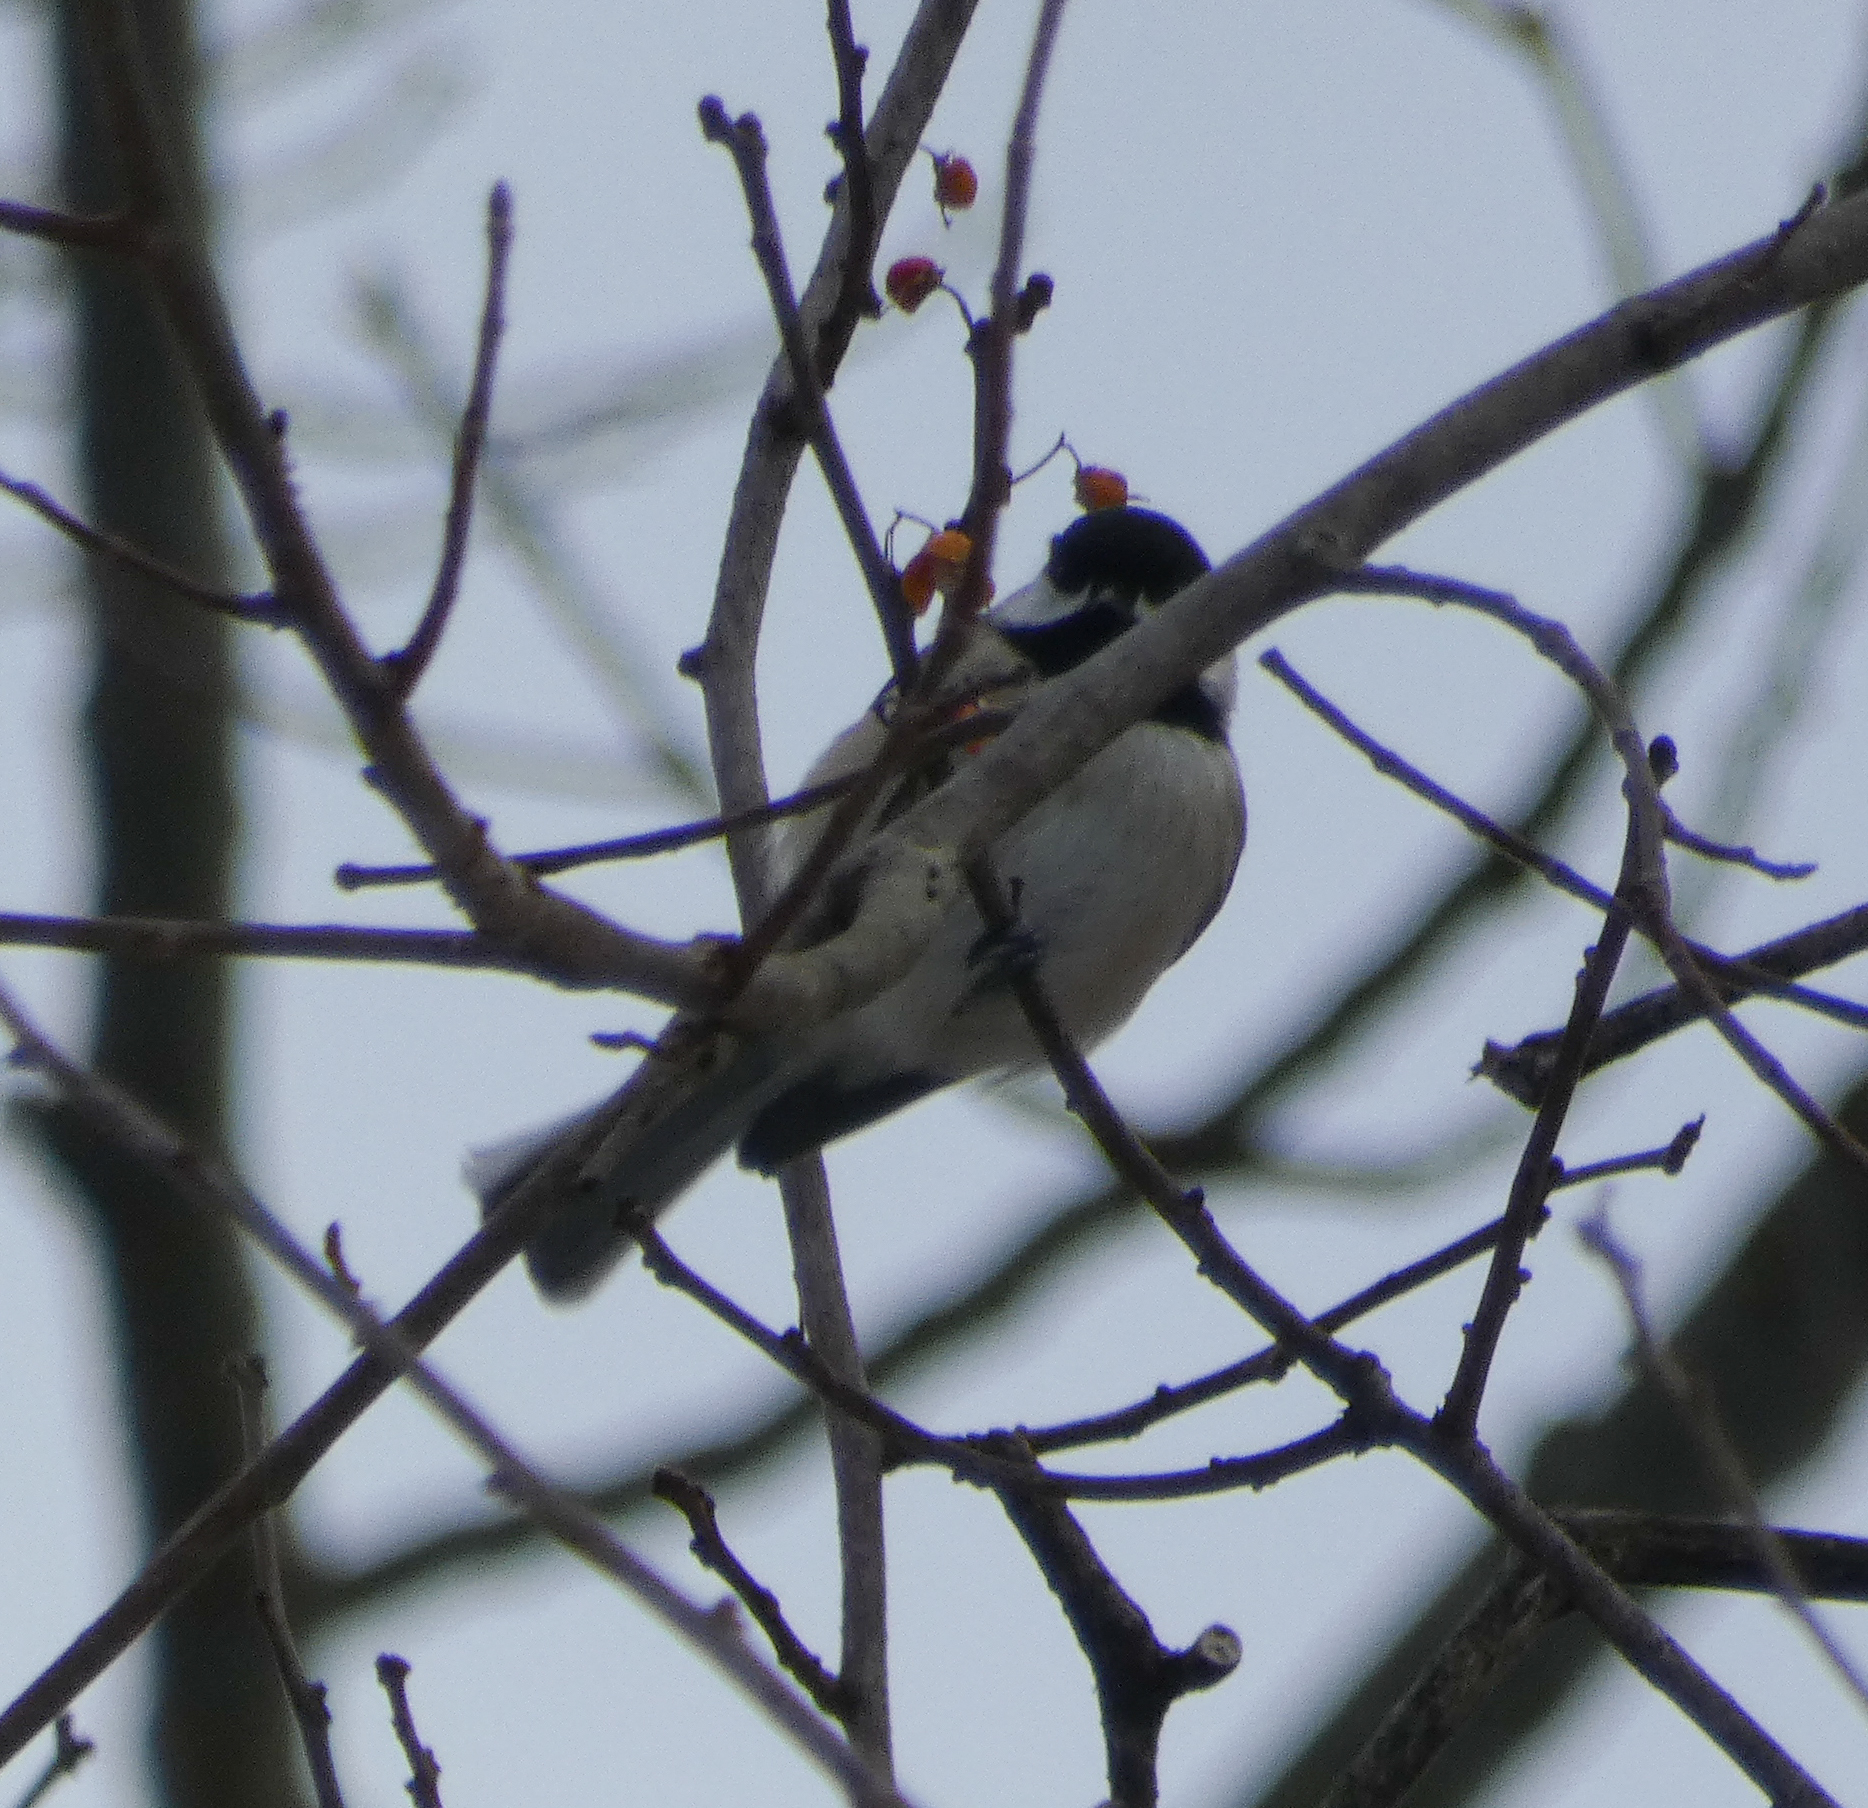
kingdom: Animalia
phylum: Chordata
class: Aves
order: Passeriformes
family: Paridae
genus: Poecile
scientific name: Poecile carolinensis
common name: Carolina chickadee
